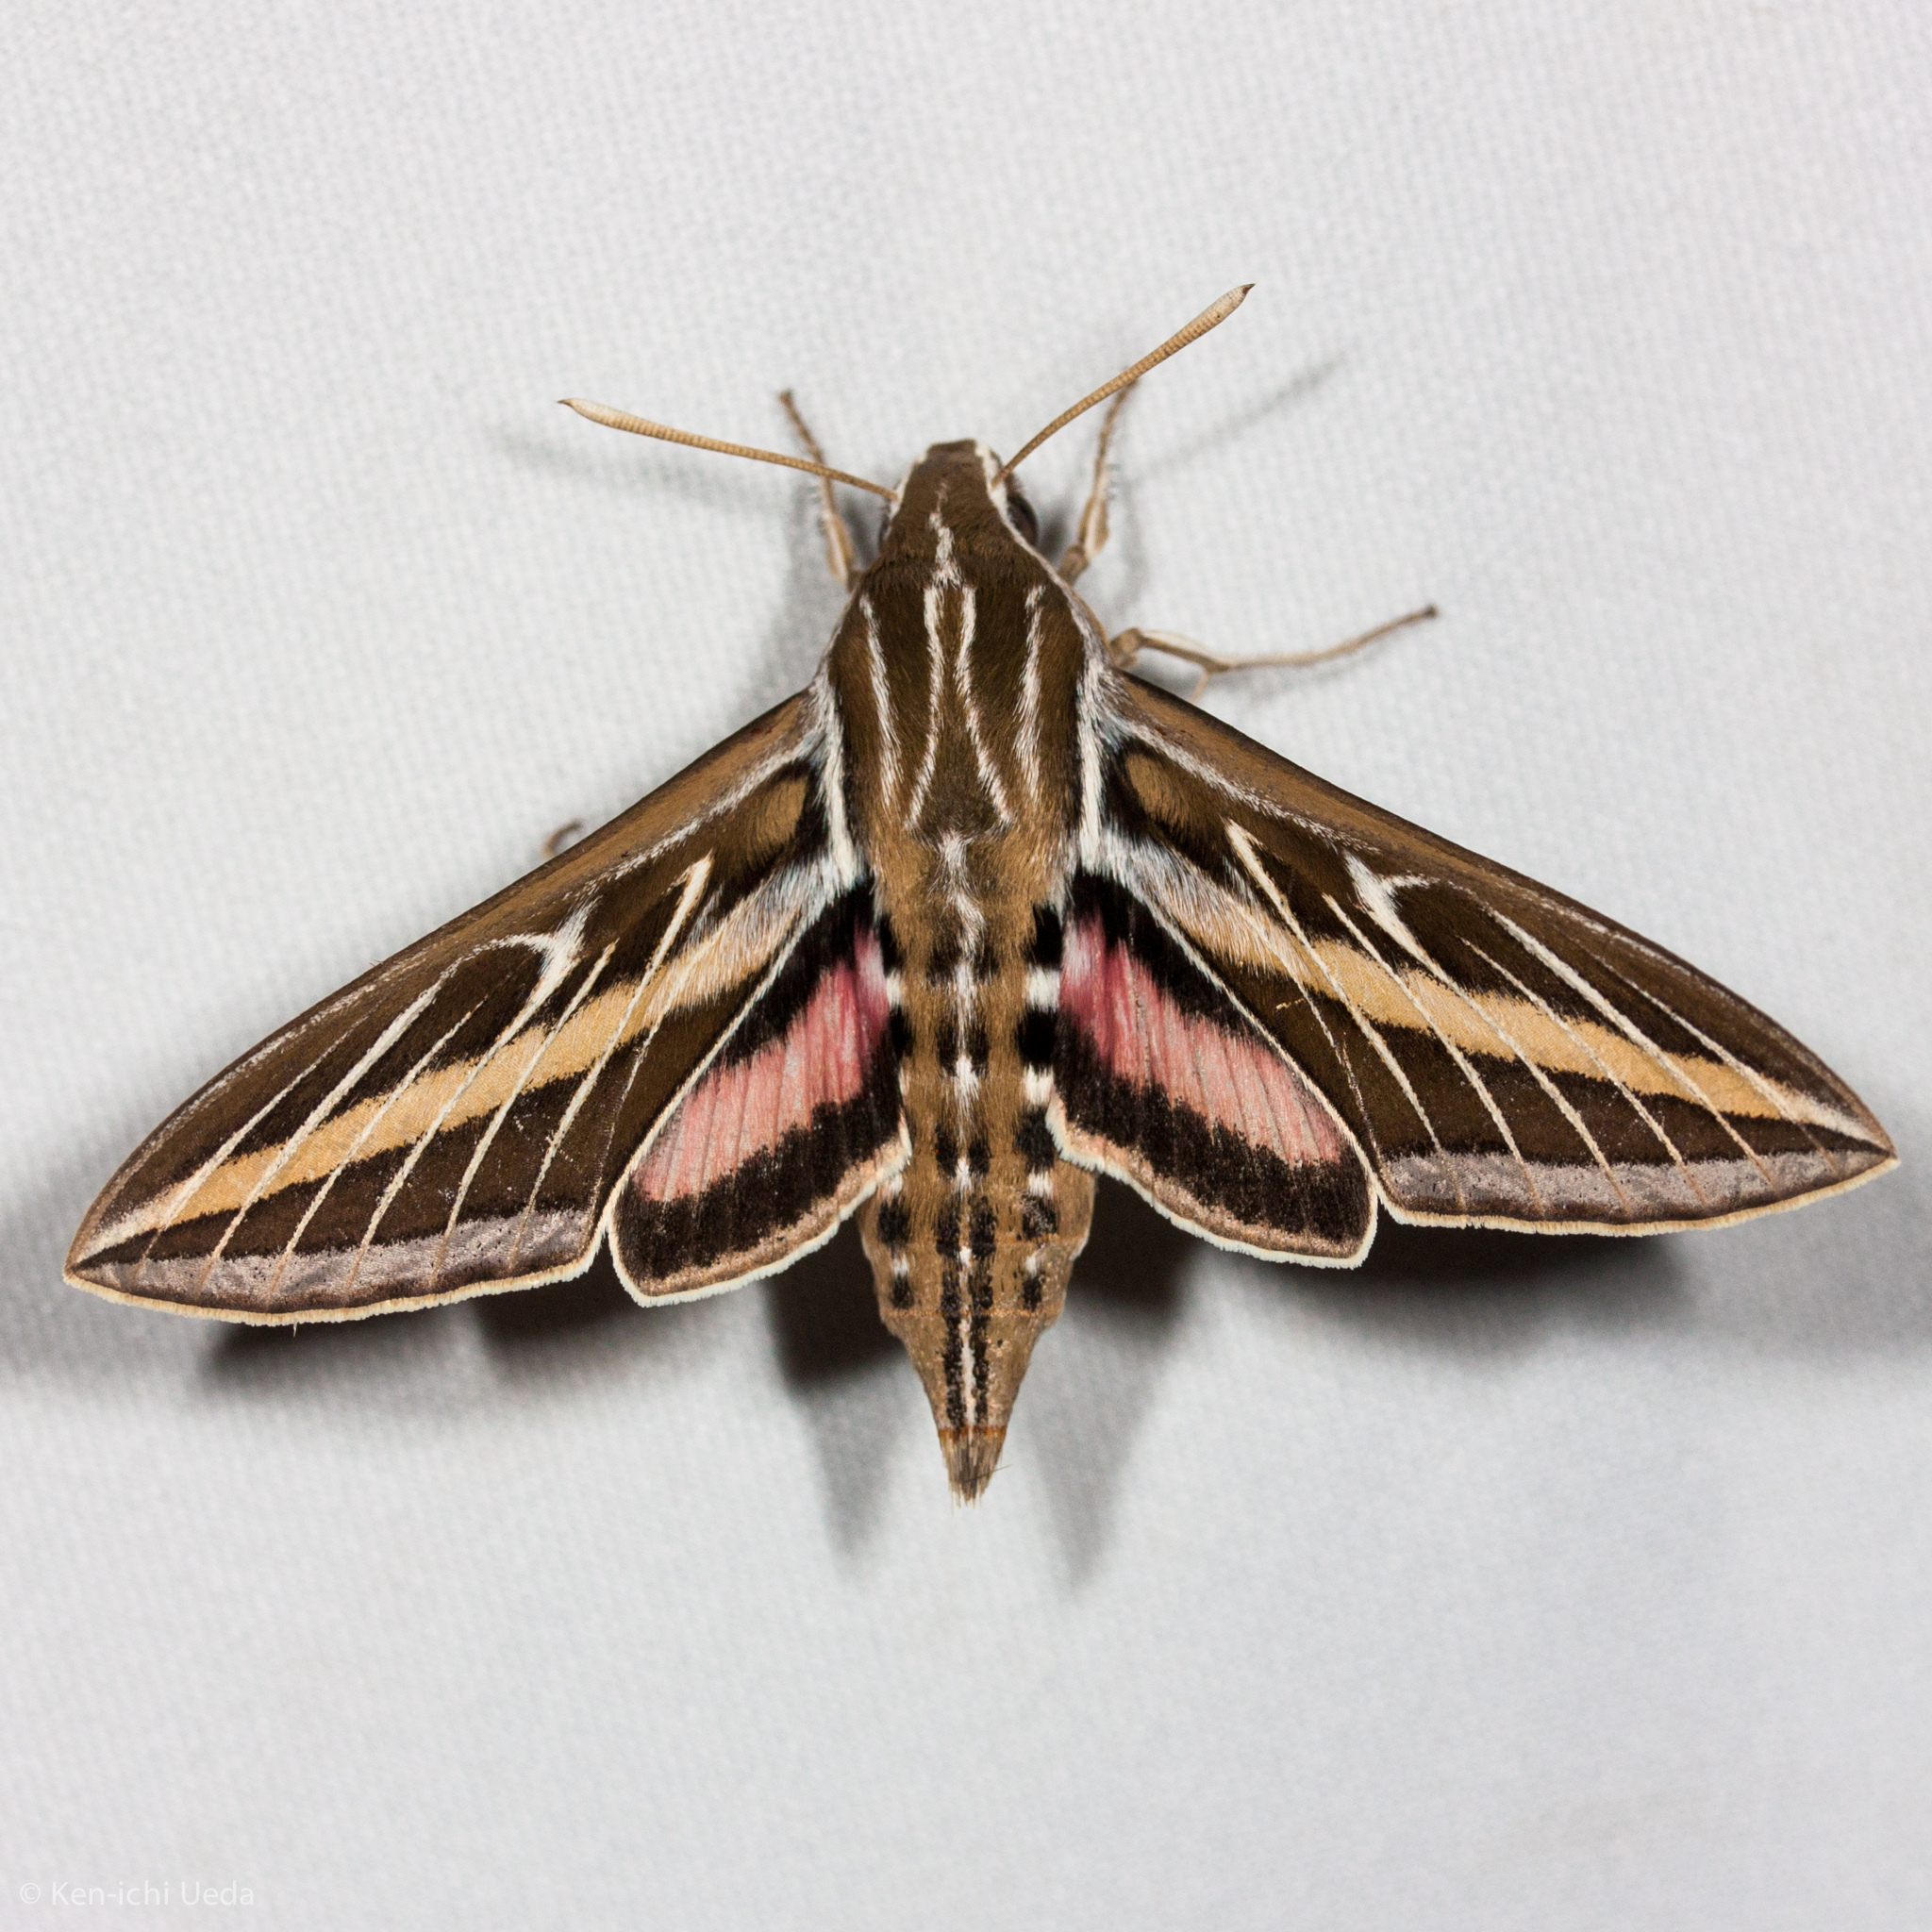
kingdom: Animalia
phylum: Arthropoda
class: Insecta
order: Lepidoptera
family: Sphingidae
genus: Hyles
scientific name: Hyles lineata
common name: White-lined sphinx
